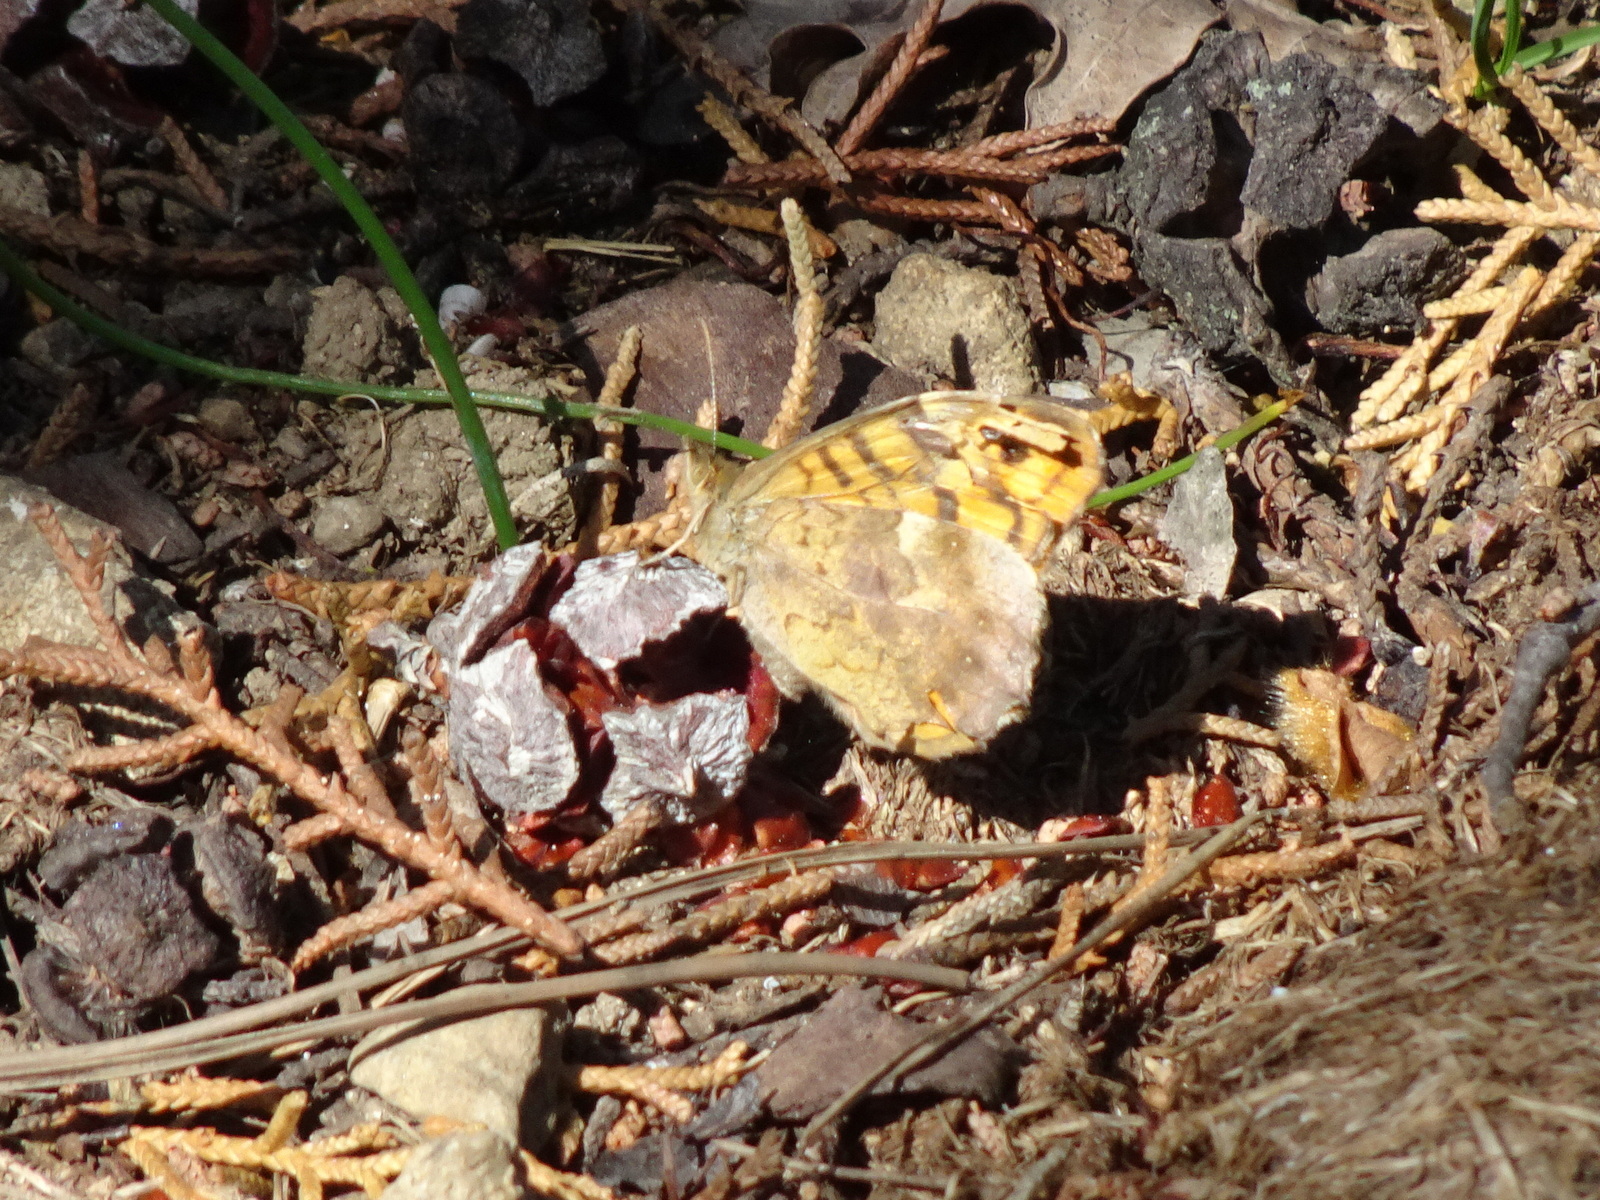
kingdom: Animalia
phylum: Arthropoda
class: Insecta
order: Lepidoptera
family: Nymphalidae
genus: Pararge
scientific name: Pararge aegeria
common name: Speckled wood
